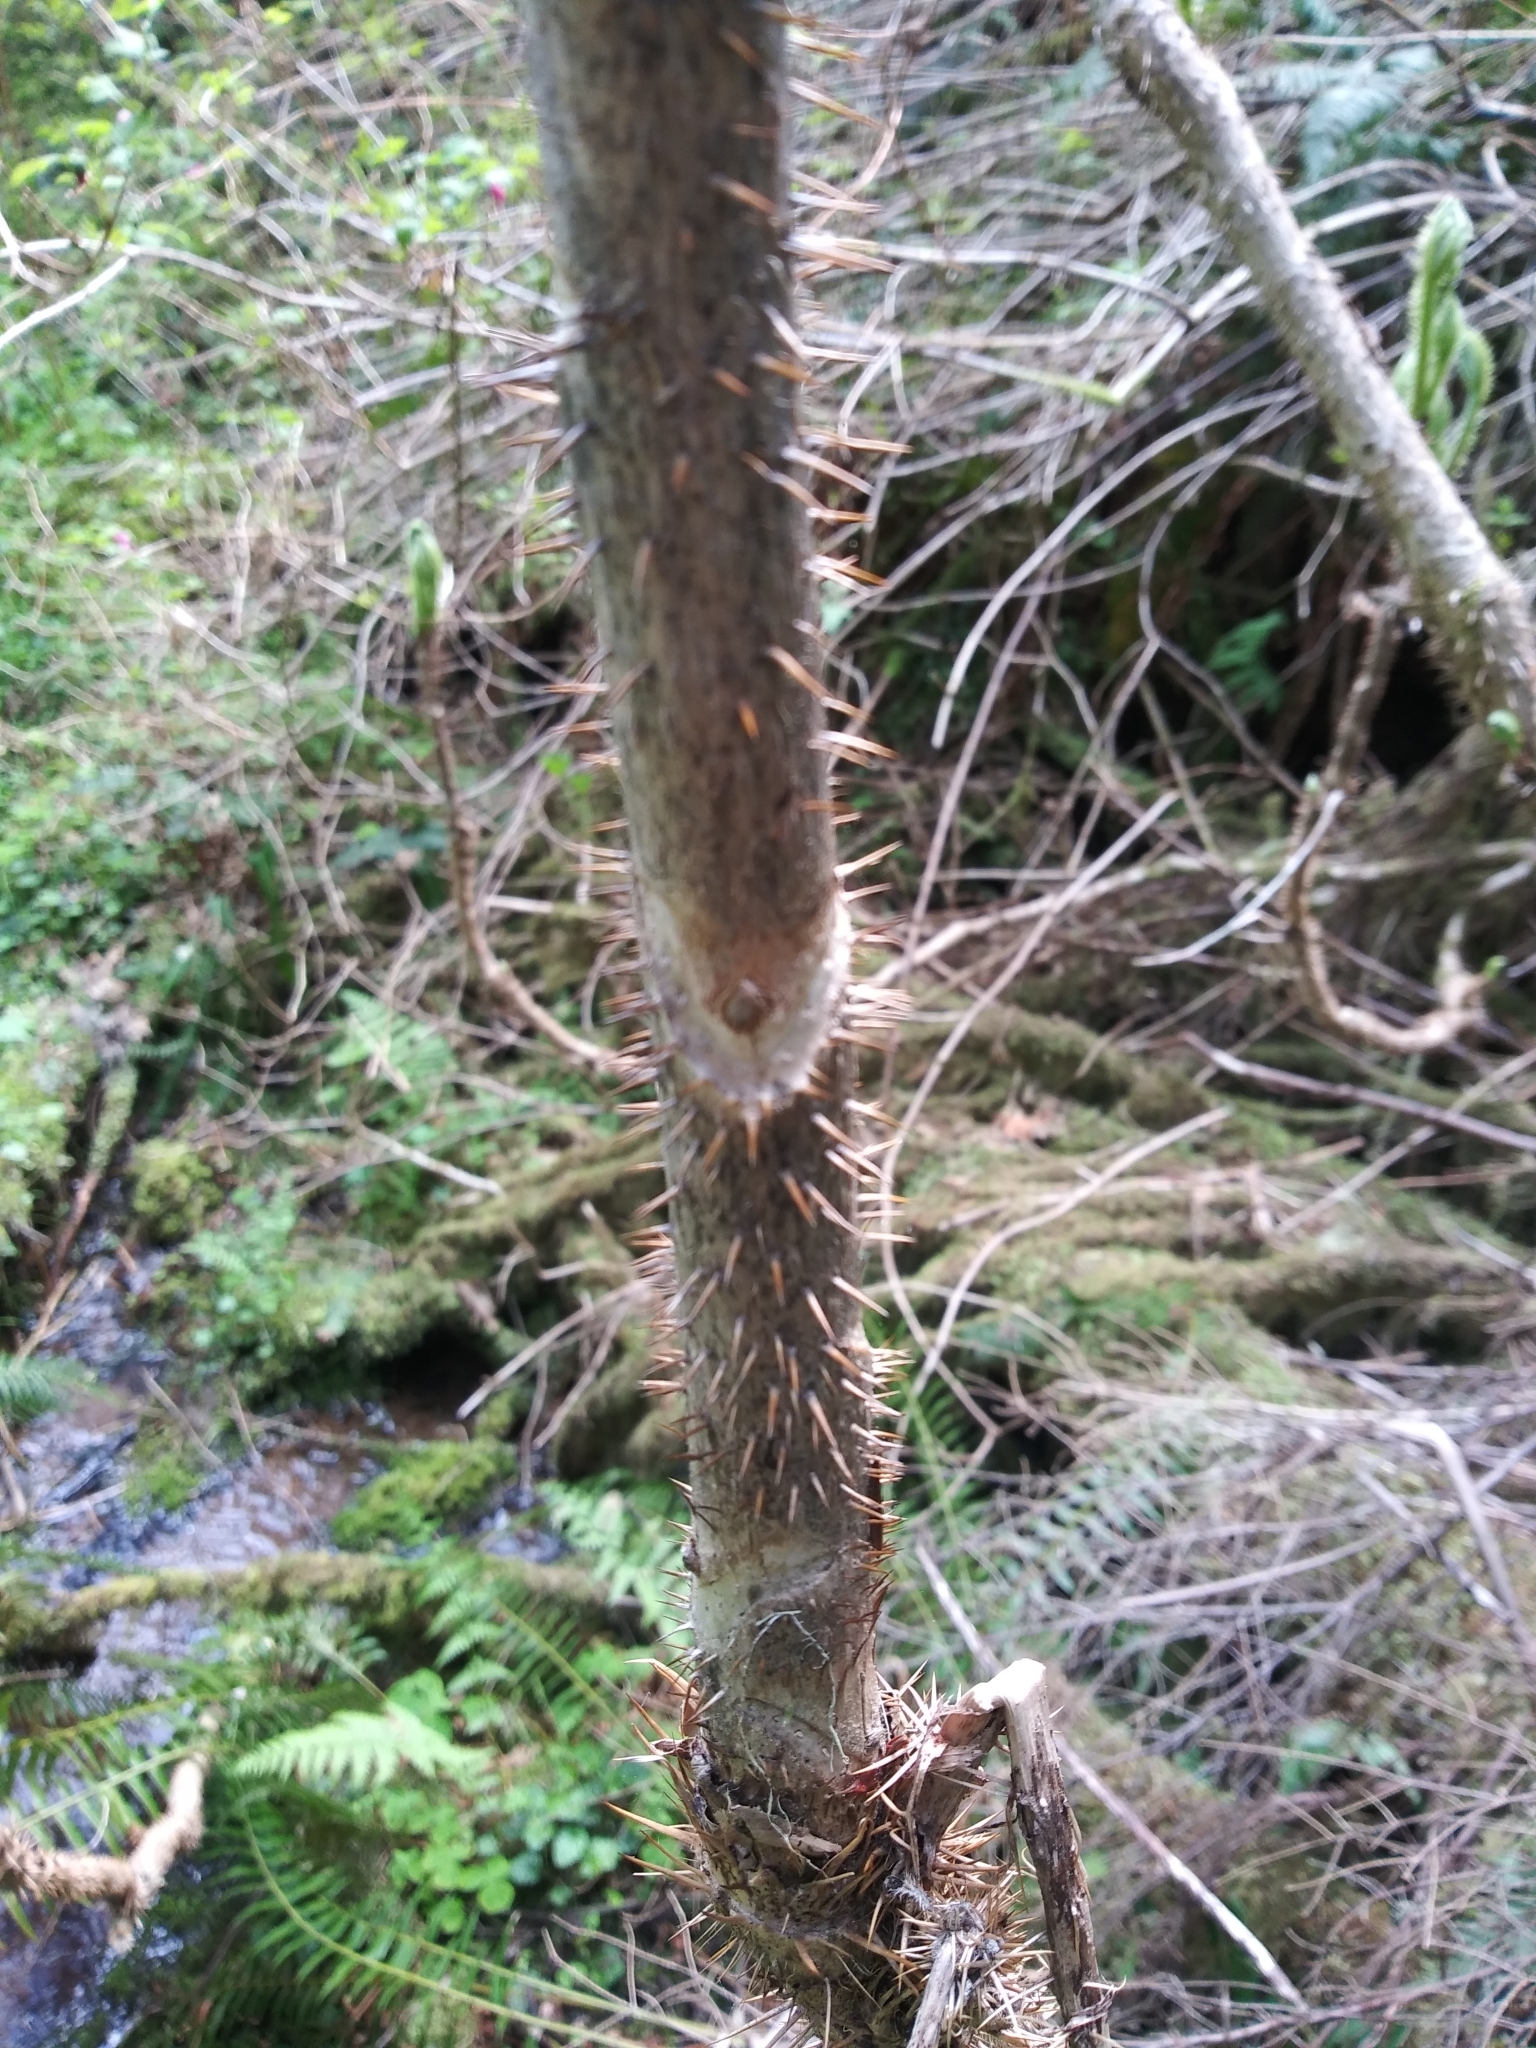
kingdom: Plantae
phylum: Tracheophyta
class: Magnoliopsida
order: Apiales
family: Araliaceae
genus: Oplopanax
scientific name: Oplopanax horridus
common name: Devil's walking-stick
